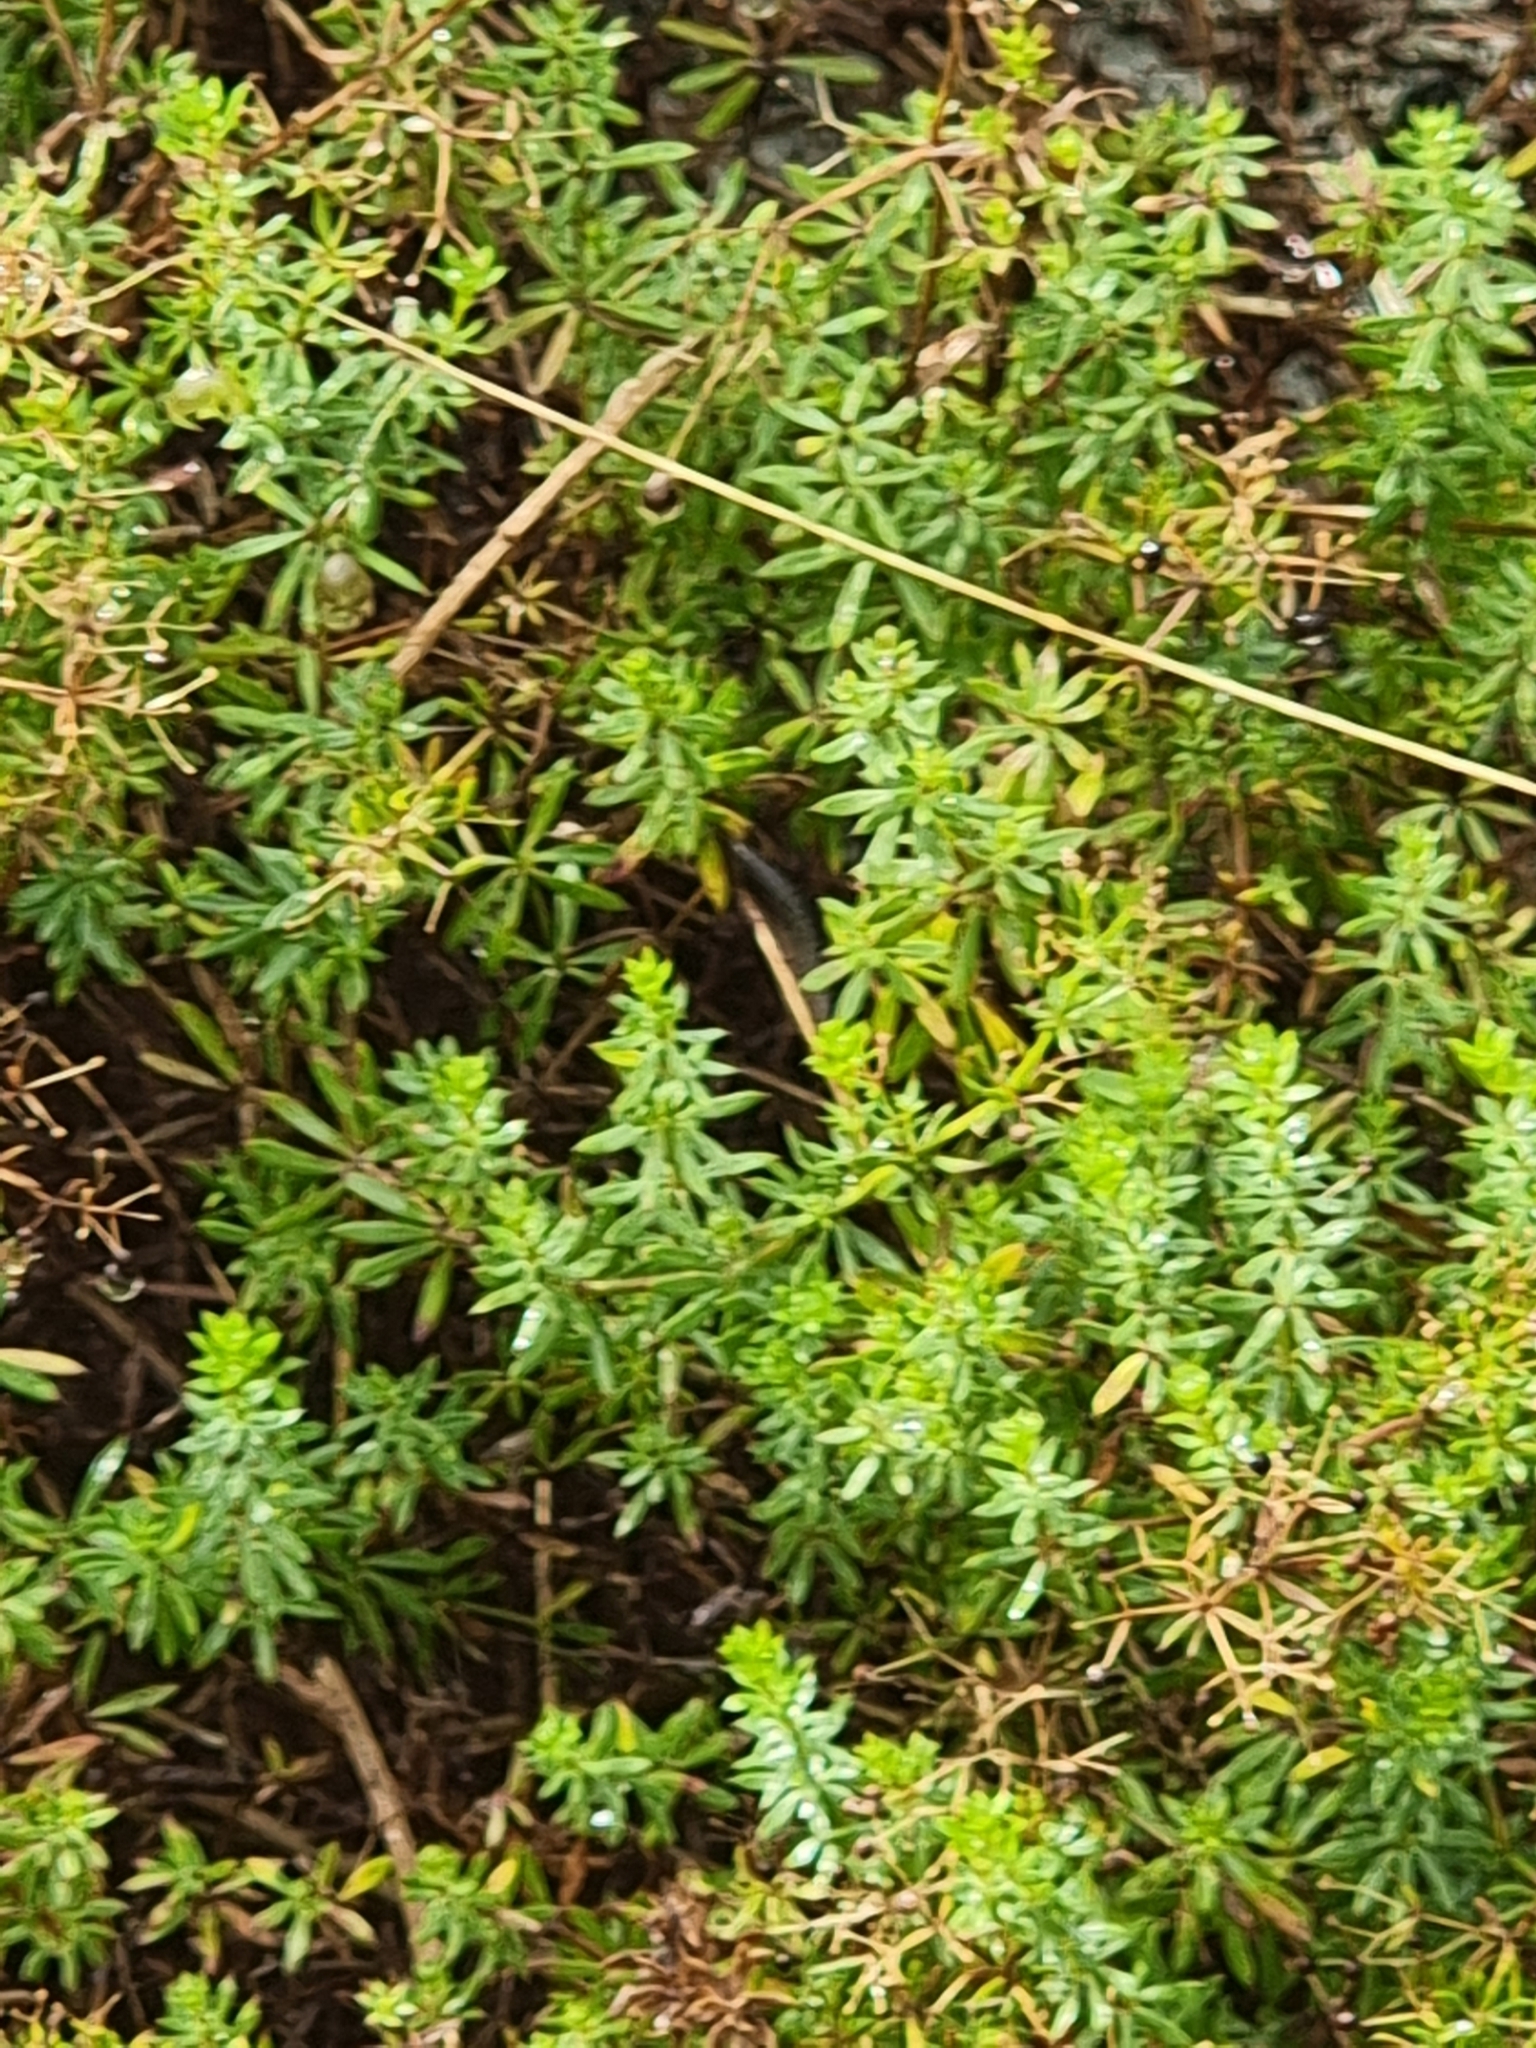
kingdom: Plantae
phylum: Tracheophyta
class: Magnoliopsida
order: Gentianales
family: Rubiaceae
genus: Galium
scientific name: Galium productum
